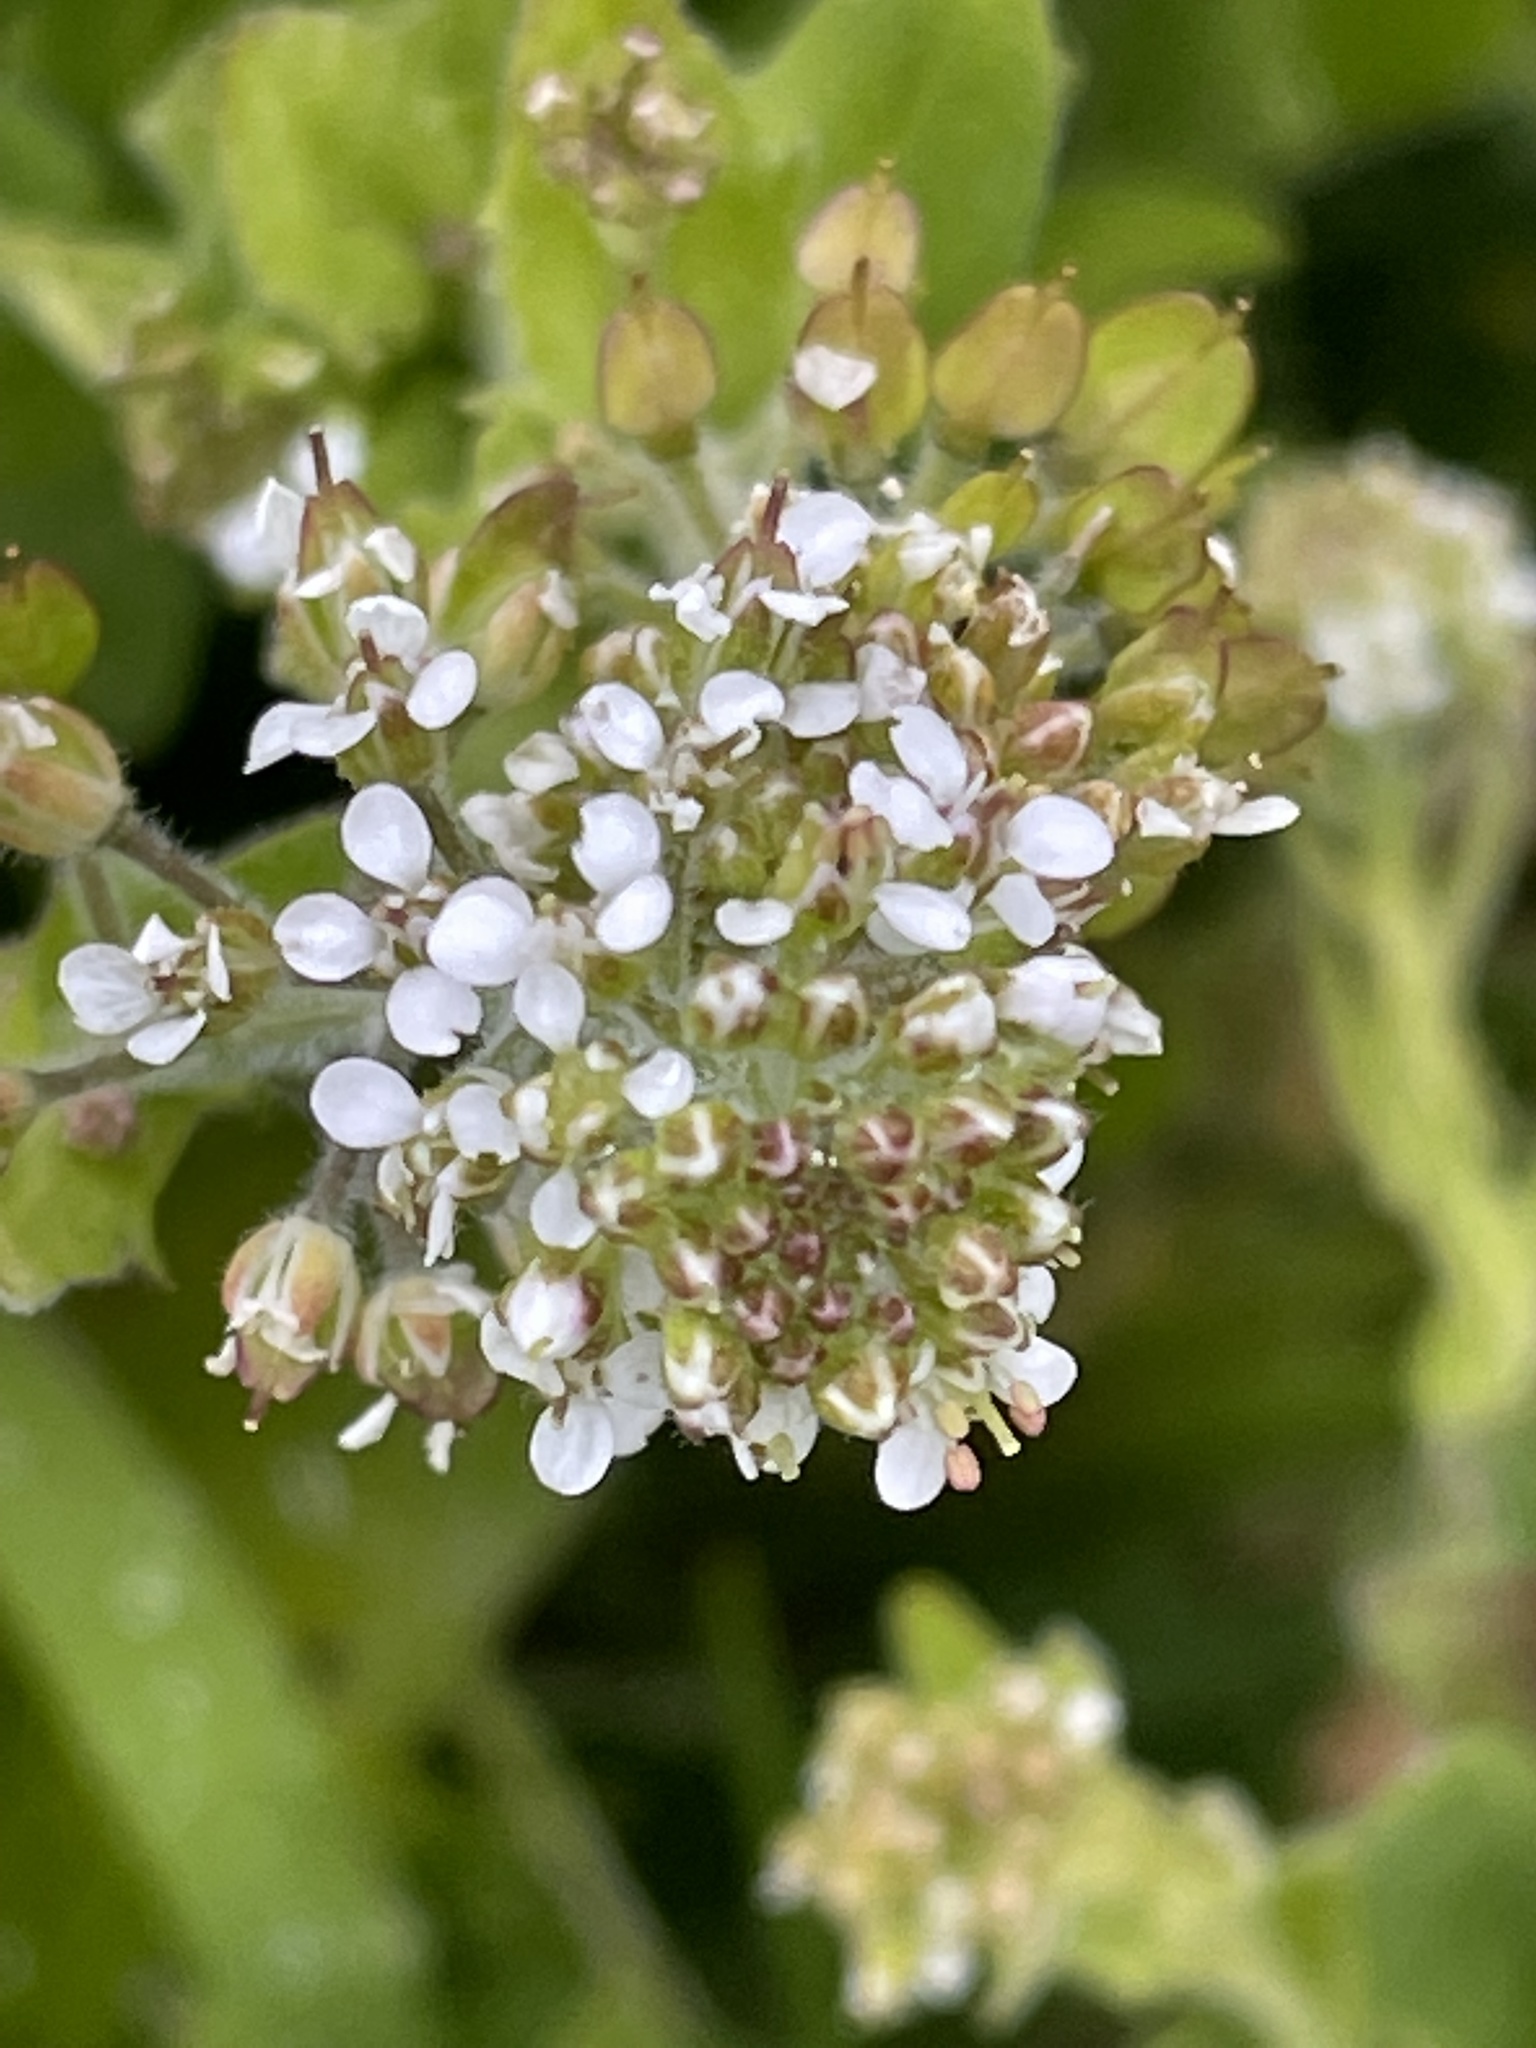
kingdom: Plantae
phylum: Tracheophyta
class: Magnoliopsida
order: Brassicales
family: Brassicaceae
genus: Lepidium
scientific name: Lepidium heterophyllum
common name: Smith's pepperwort
